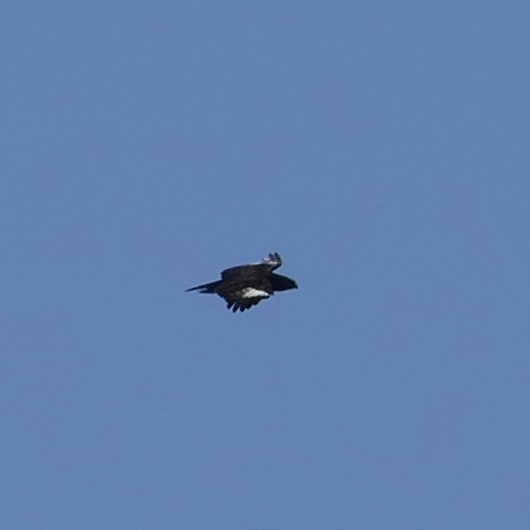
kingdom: Animalia
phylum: Chordata
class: Aves
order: Accipitriformes
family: Accipitridae
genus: Lophaetus
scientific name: Lophaetus occipitalis
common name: Long-crested eagle
